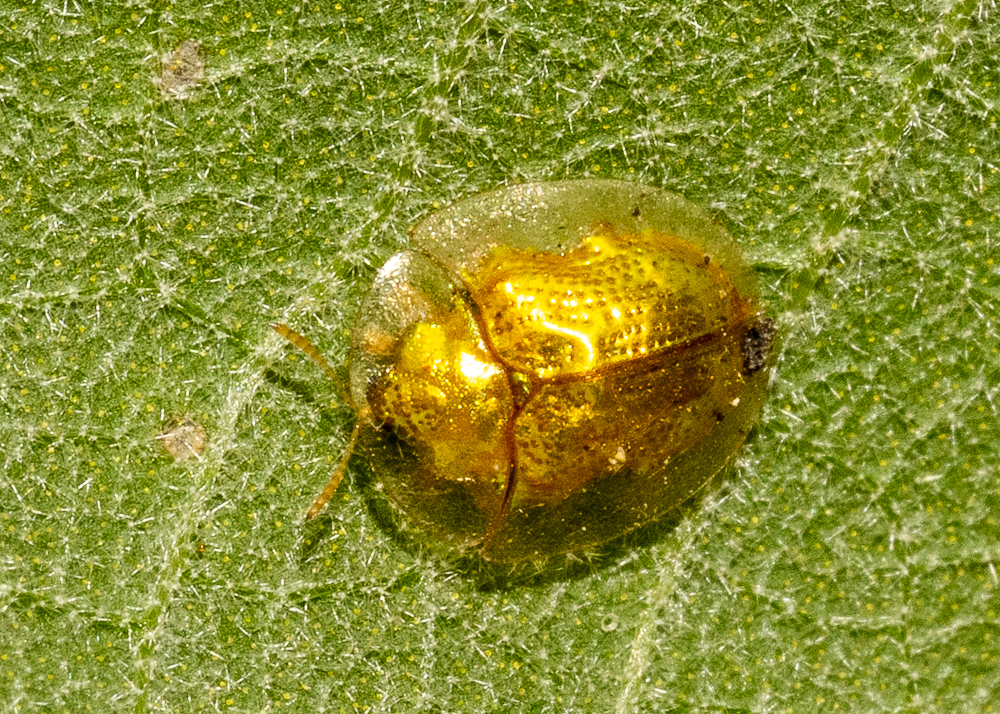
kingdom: Animalia
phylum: Arthropoda
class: Insecta
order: Coleoptera
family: Chrysomelidae
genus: Charidotella
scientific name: Charidotella sexpunctata
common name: Golden tortoise beetle
